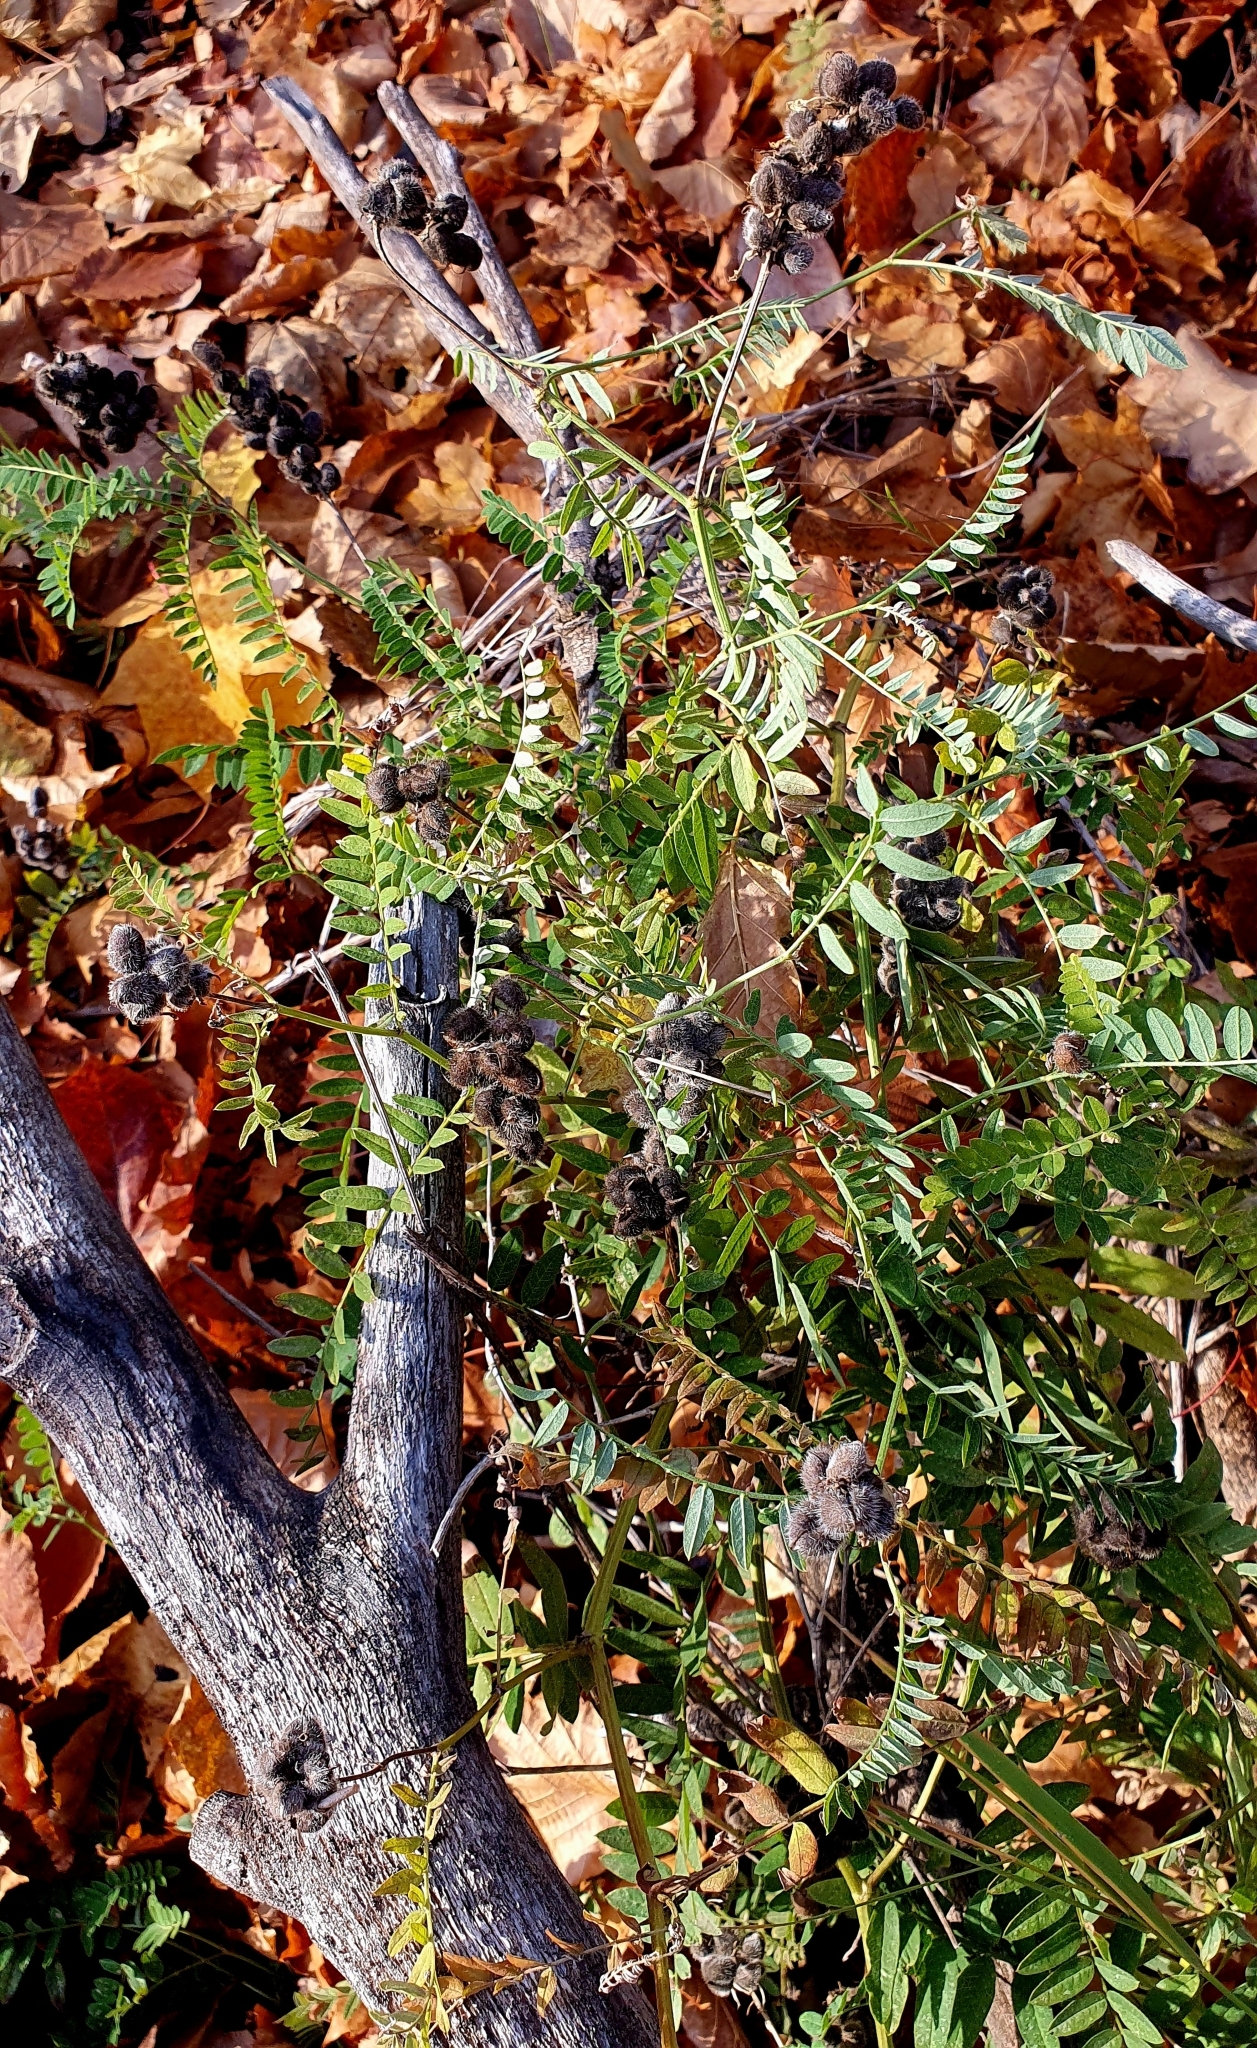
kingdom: Plantae
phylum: Tracheophyta
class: Magnoliopsida
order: Fabales
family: Fabaceae
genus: Astragalus
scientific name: Astragalus cicer
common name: Chick-pea milk-vetch
